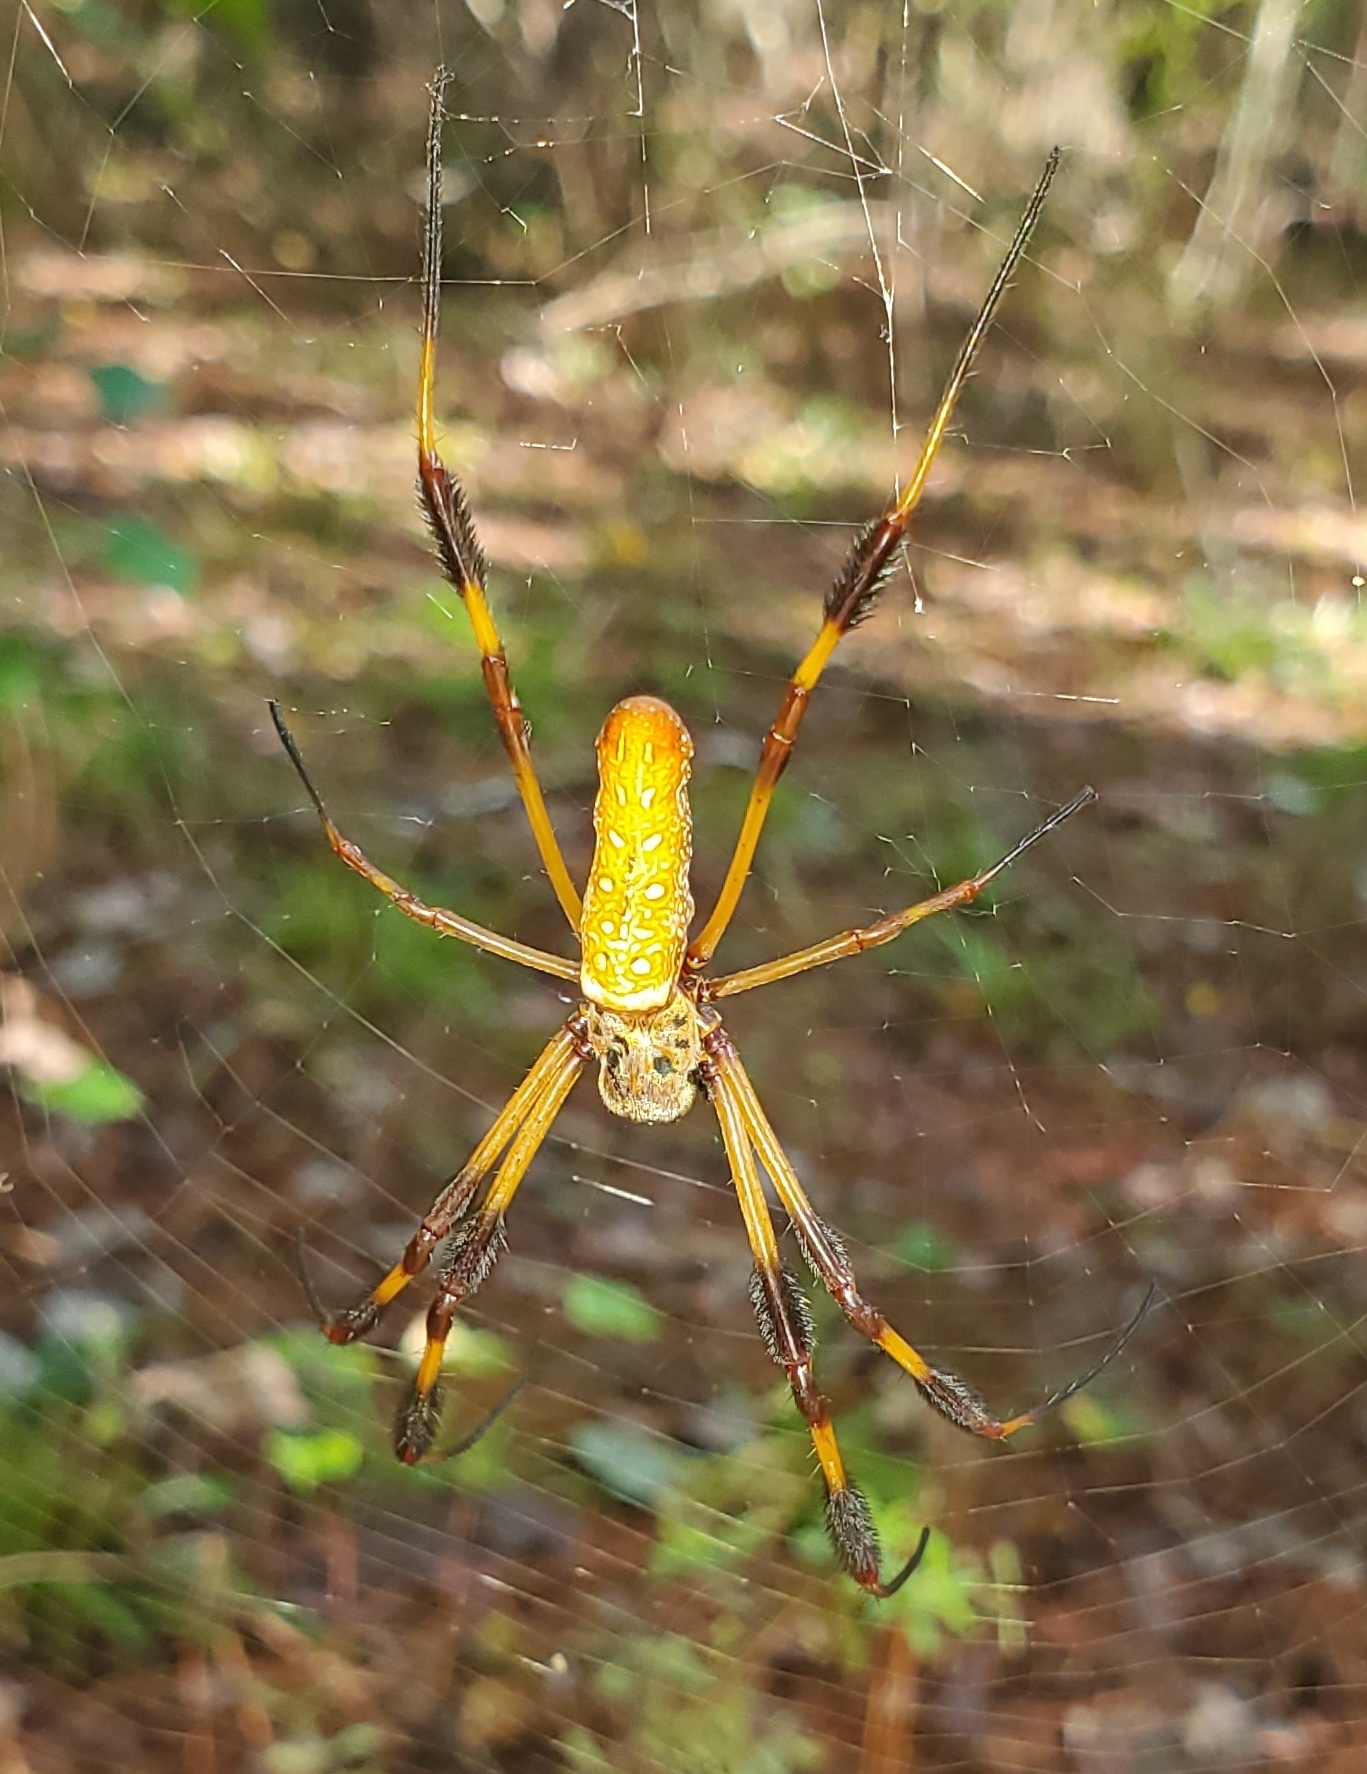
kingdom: Animalia
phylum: Arthropoda
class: Arachnida
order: Araneae
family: Araneidae
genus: Trichonephila
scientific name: Trichonephila clavipes
